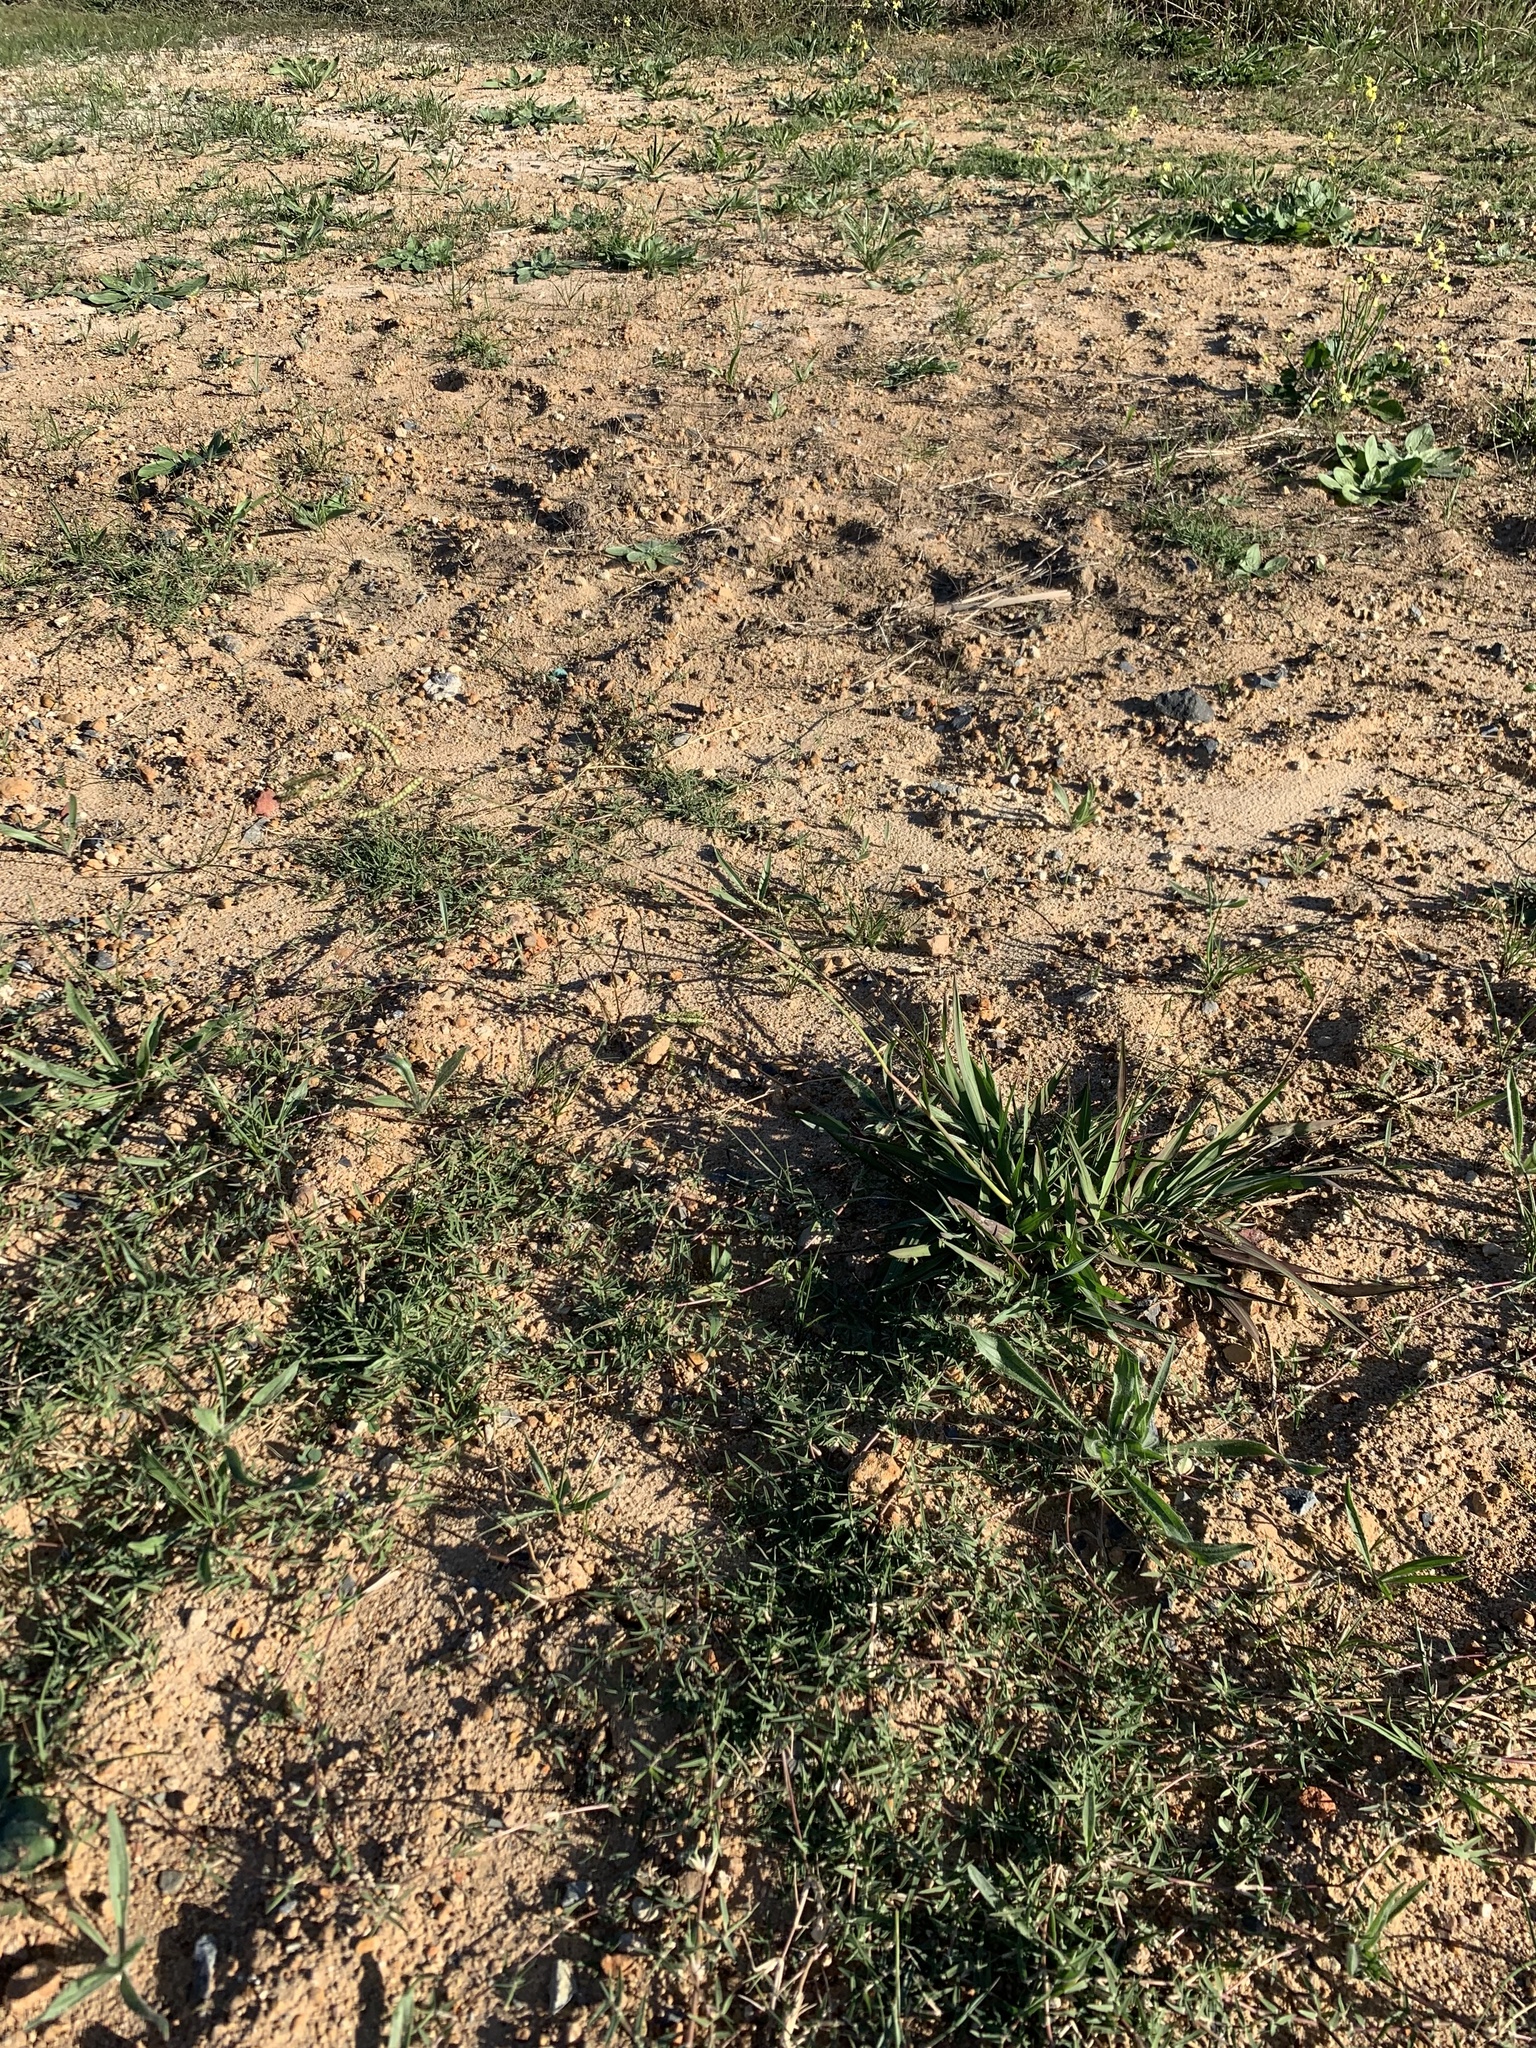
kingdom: Plantae
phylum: Tracheophyta
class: Liliopsida
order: Poales
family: Poaceae
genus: Paspalum
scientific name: Paspalum dilatatum
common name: Dallisgrass
